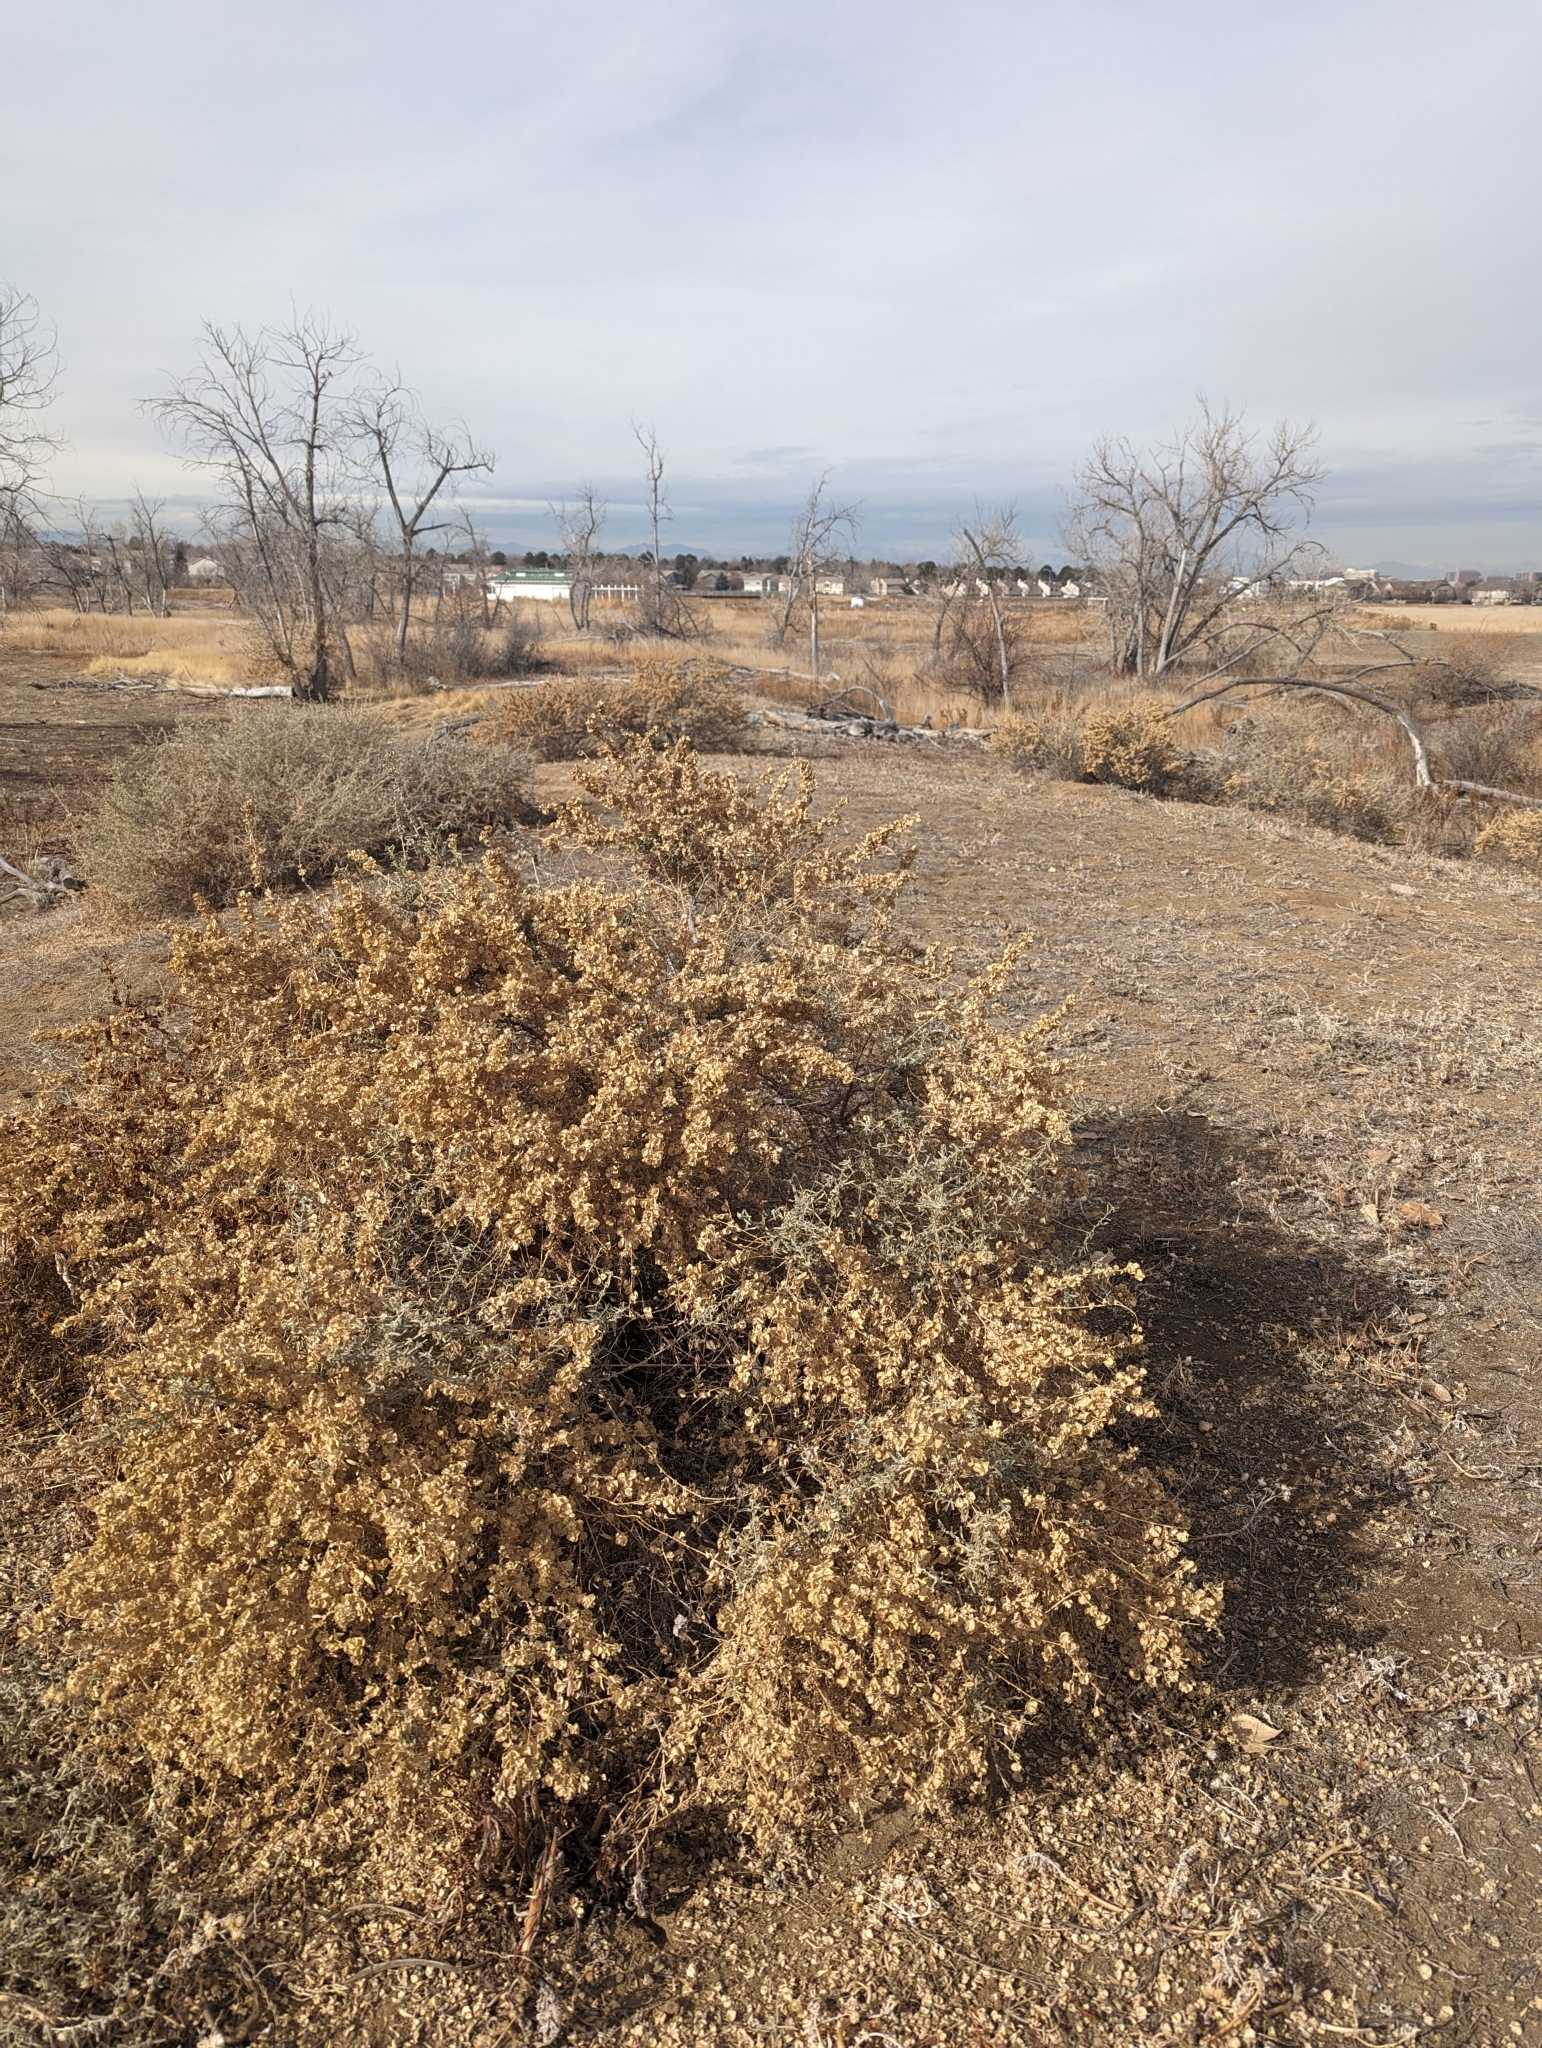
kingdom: Plantae
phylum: Tracheophyta
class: Magnoliopsida
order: Caryophyllales
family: Amaranthaceae
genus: Atriplex
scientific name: Atriplex canescens
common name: Four-wing saltbush
